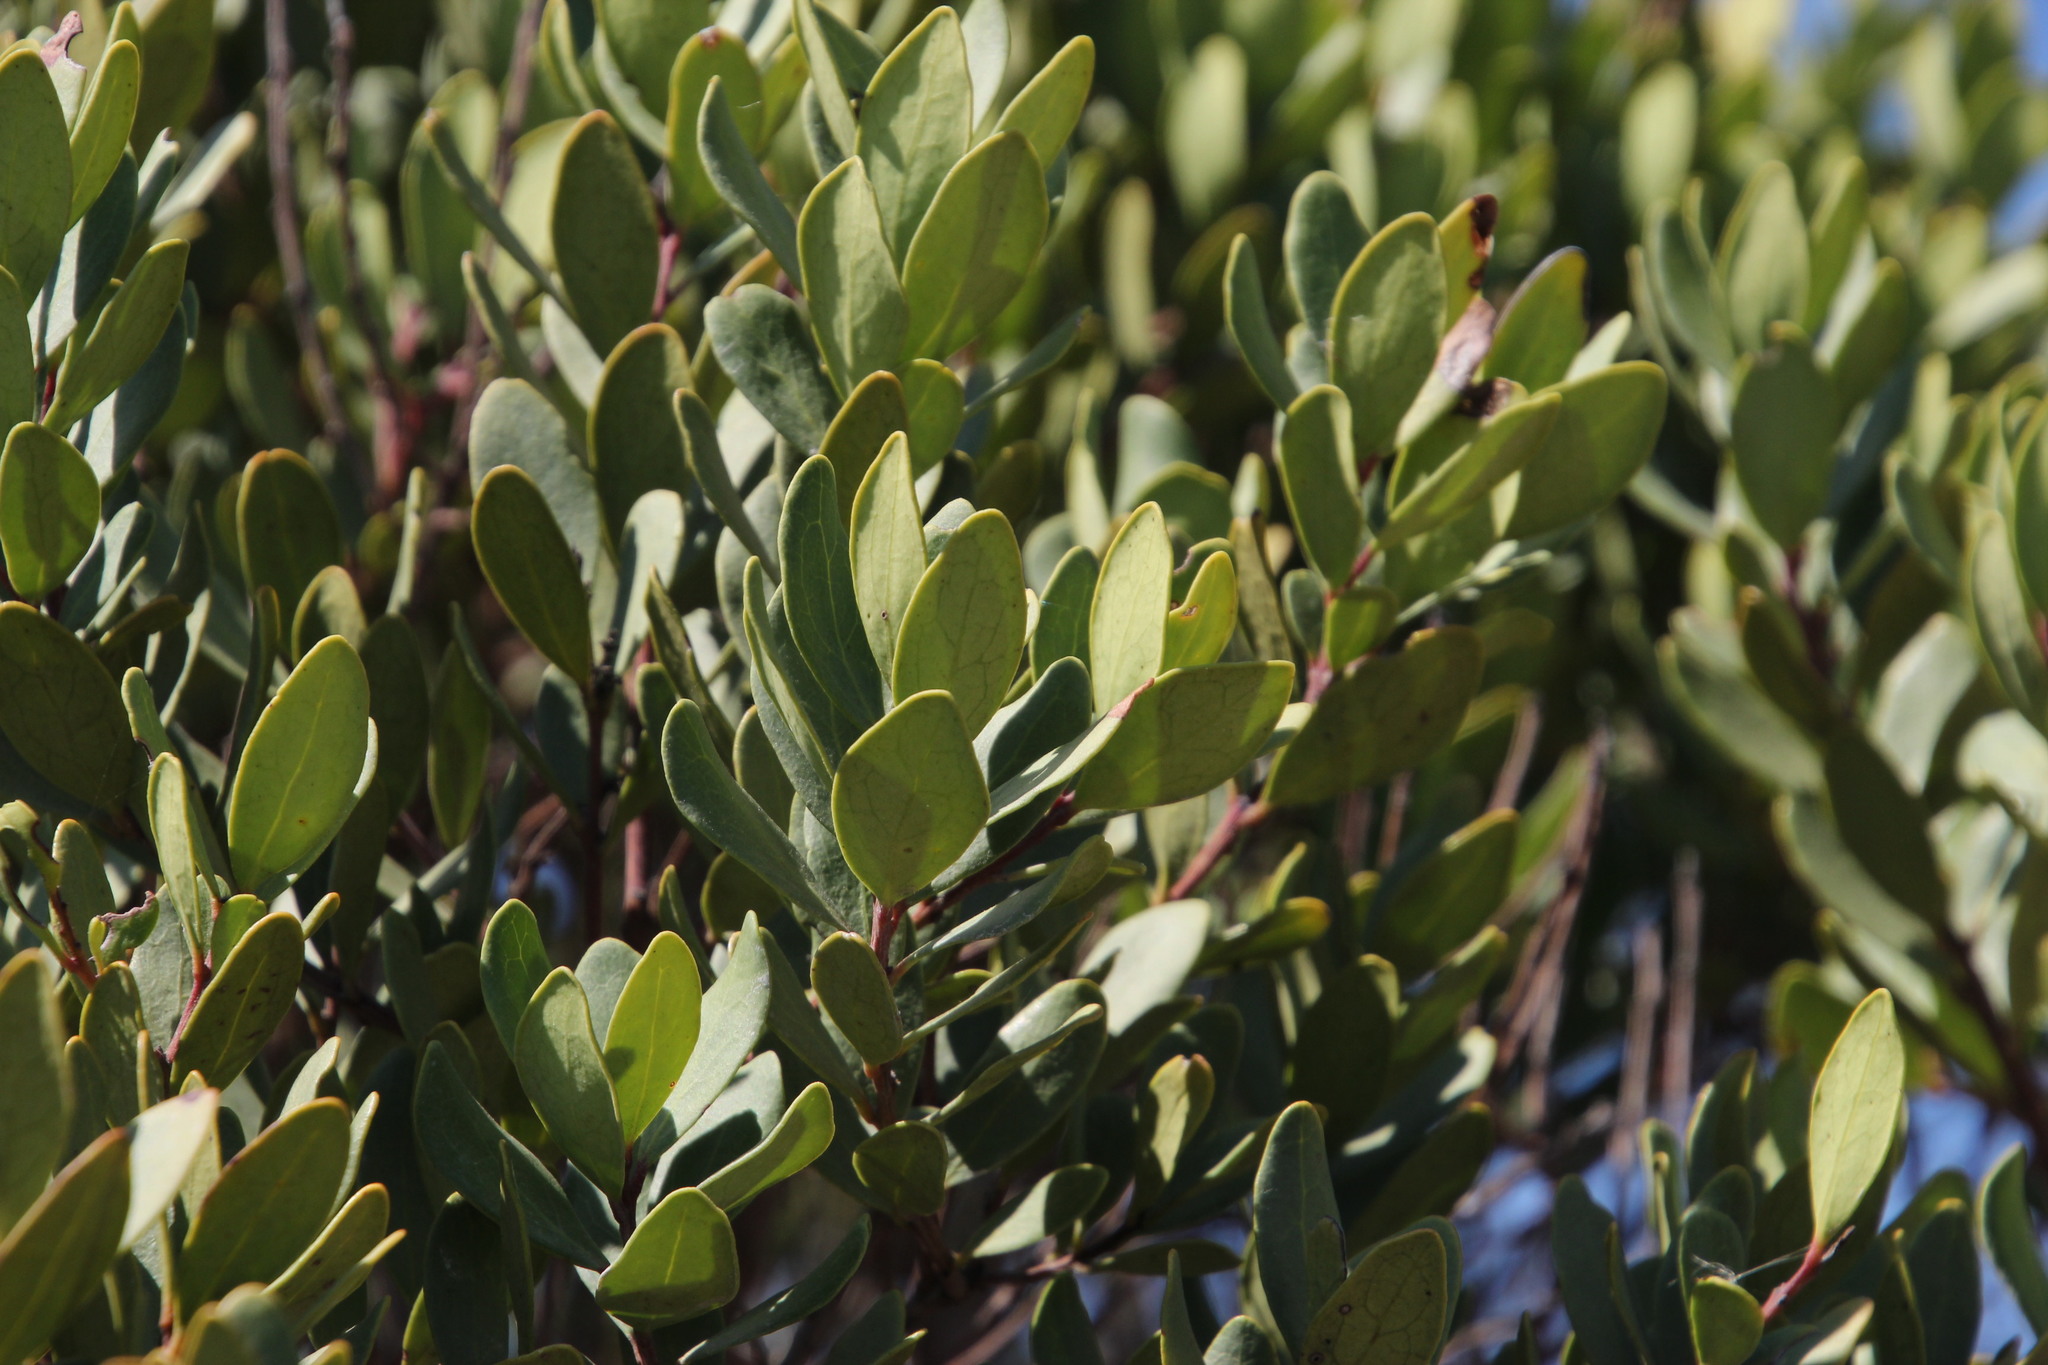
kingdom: Plantae
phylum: Tracheophyta
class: Magnoliopsida
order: Ericales
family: Ebenaceae
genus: Euclea
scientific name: Euclea racemosa
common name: Dune guarri
